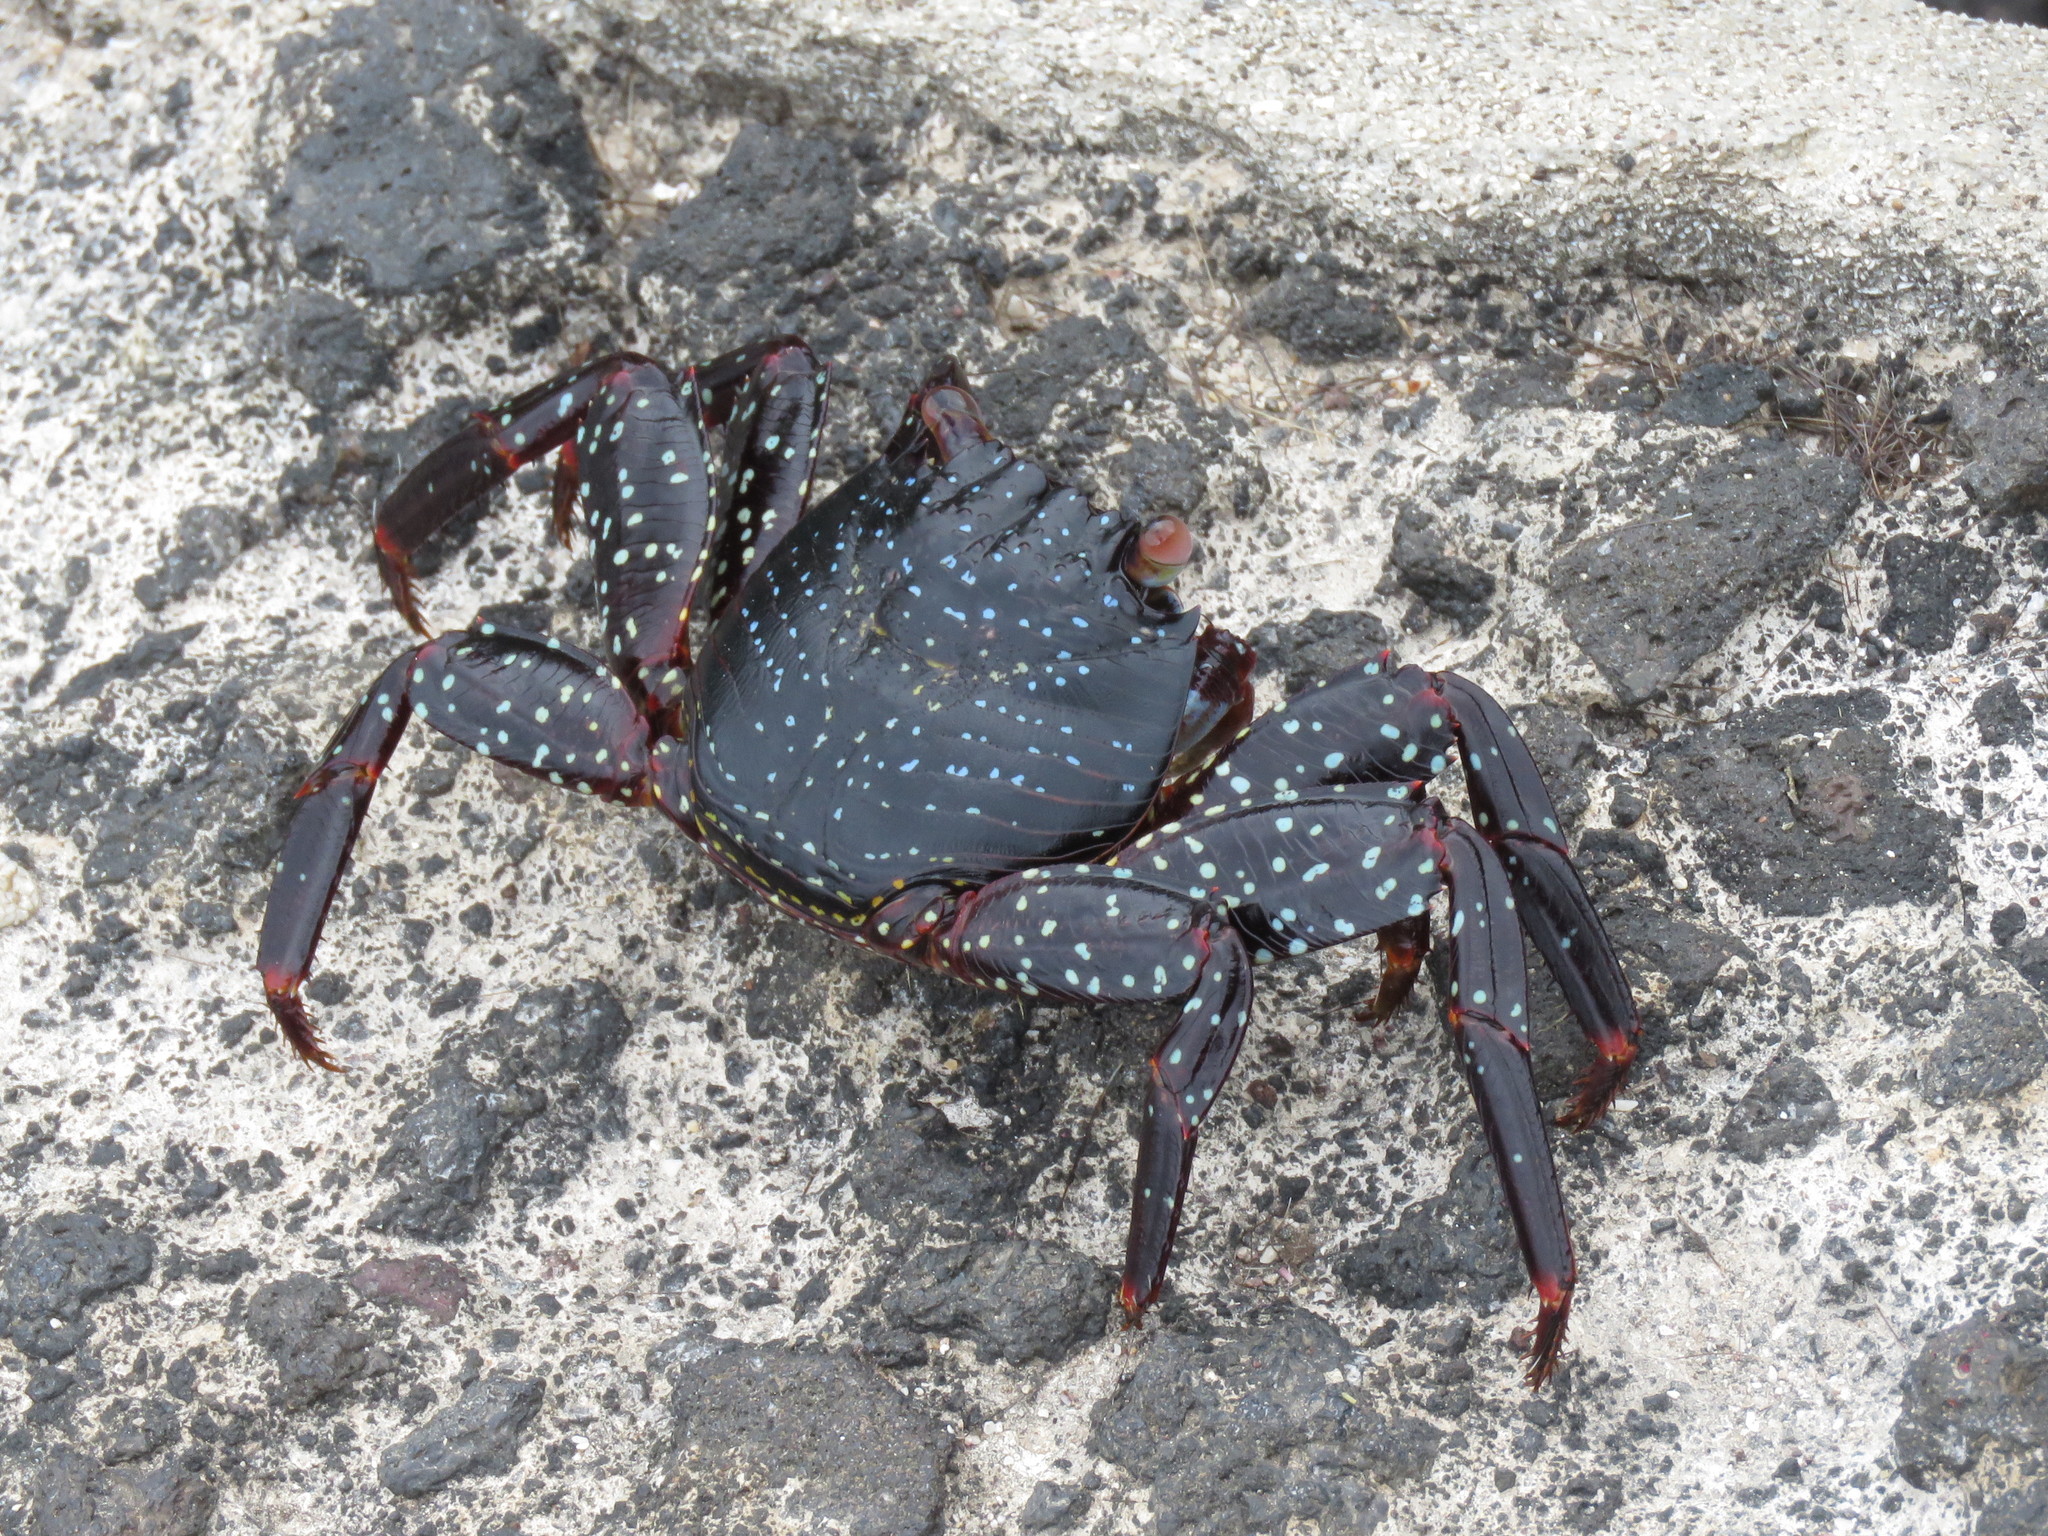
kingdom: Animalia
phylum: Arthropoda
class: Malacostraca
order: Decapoda
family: Grapsidae
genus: Grapsus
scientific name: Grapsus grapsus
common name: Sally lightfoot
